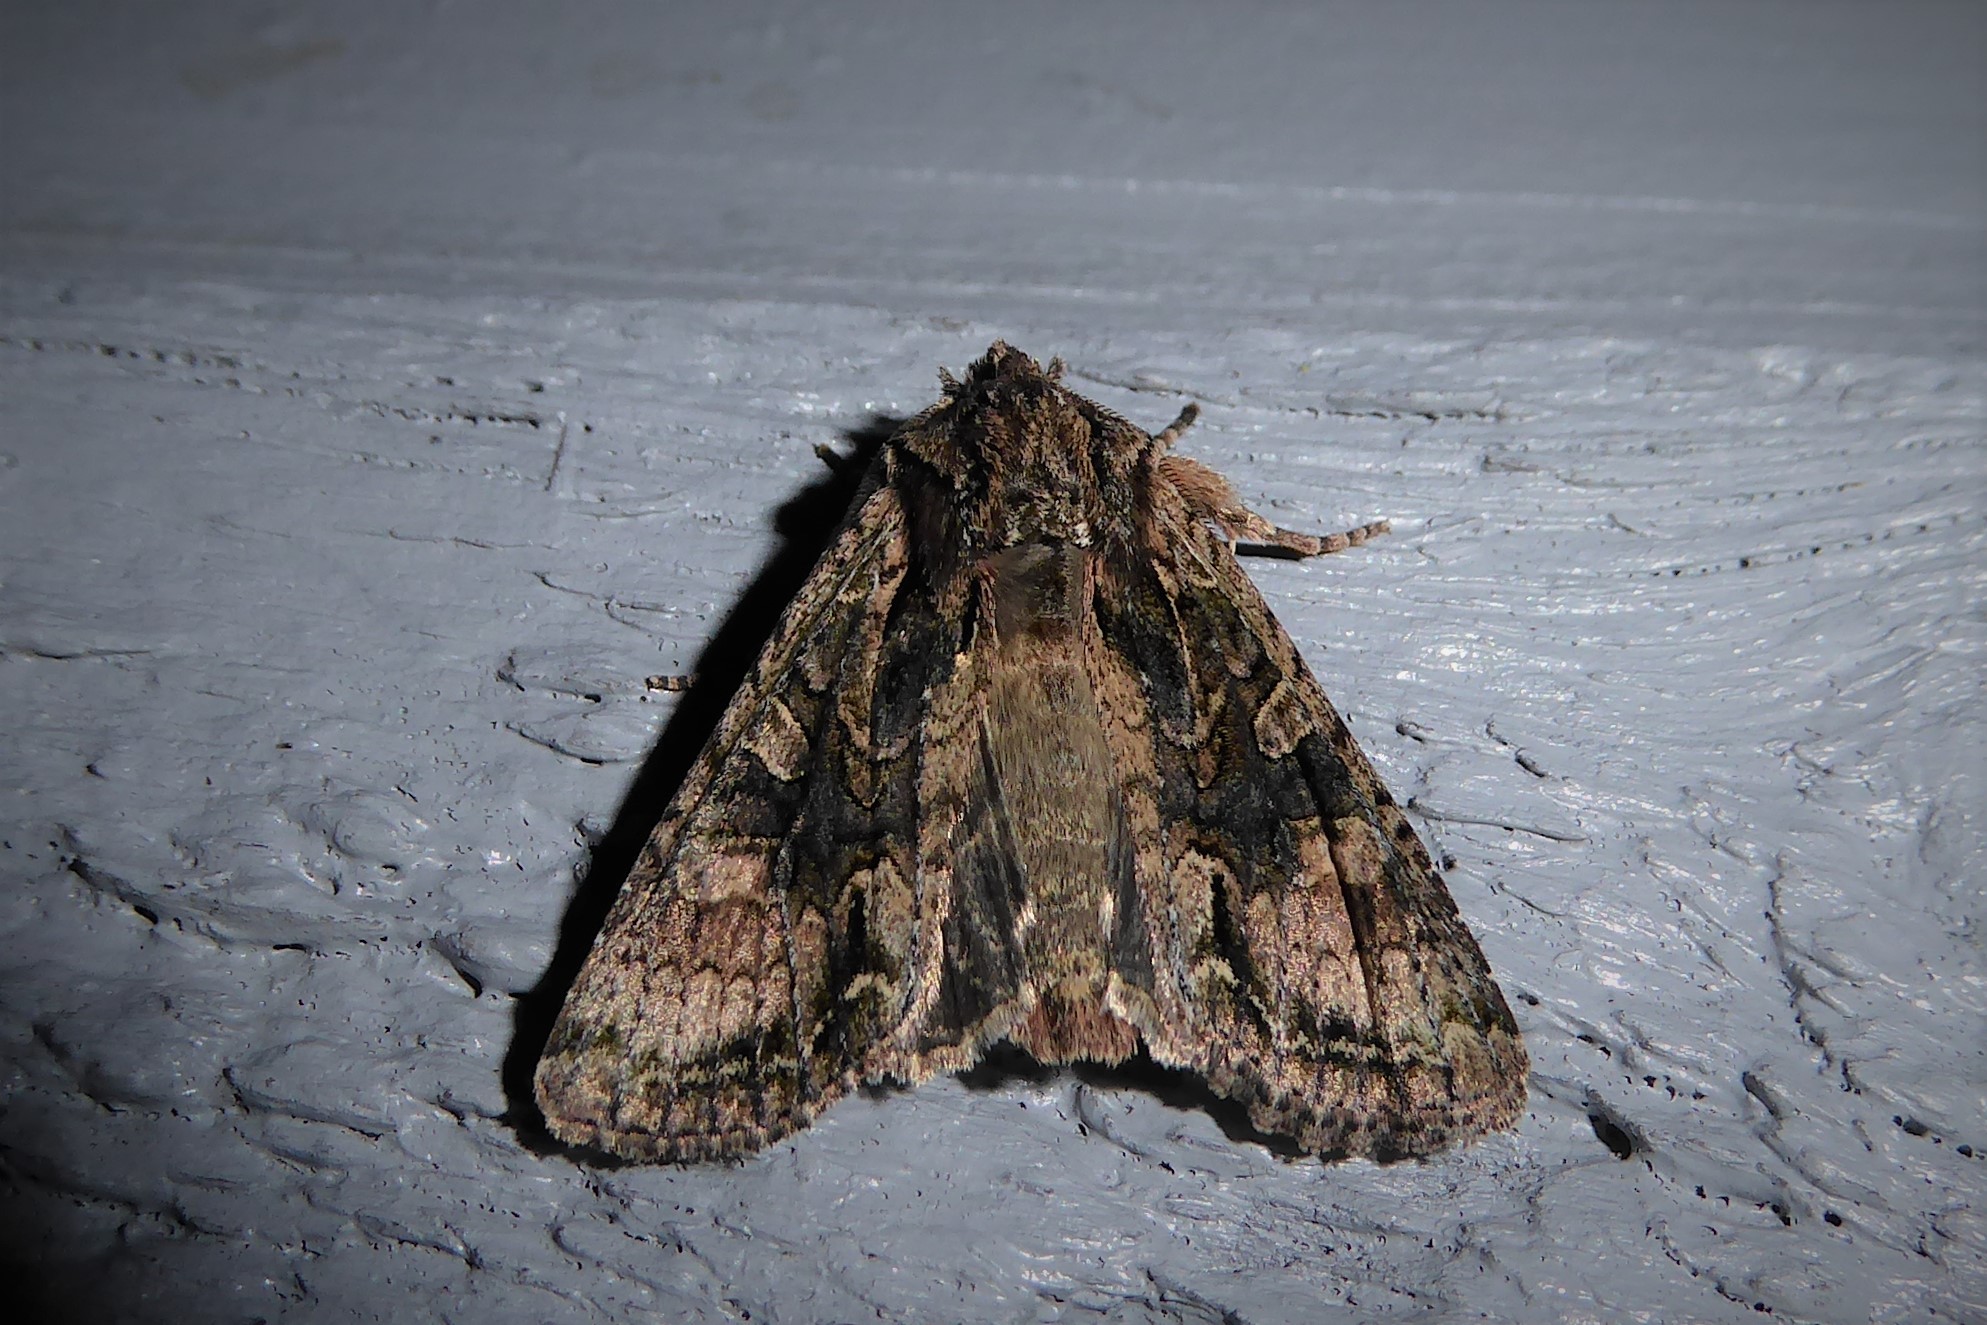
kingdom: Animalia
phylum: Arthropoda
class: Insecta
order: Lepidoptera
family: Noctuidae
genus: Ichneutica
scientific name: Ichneutica mutans
